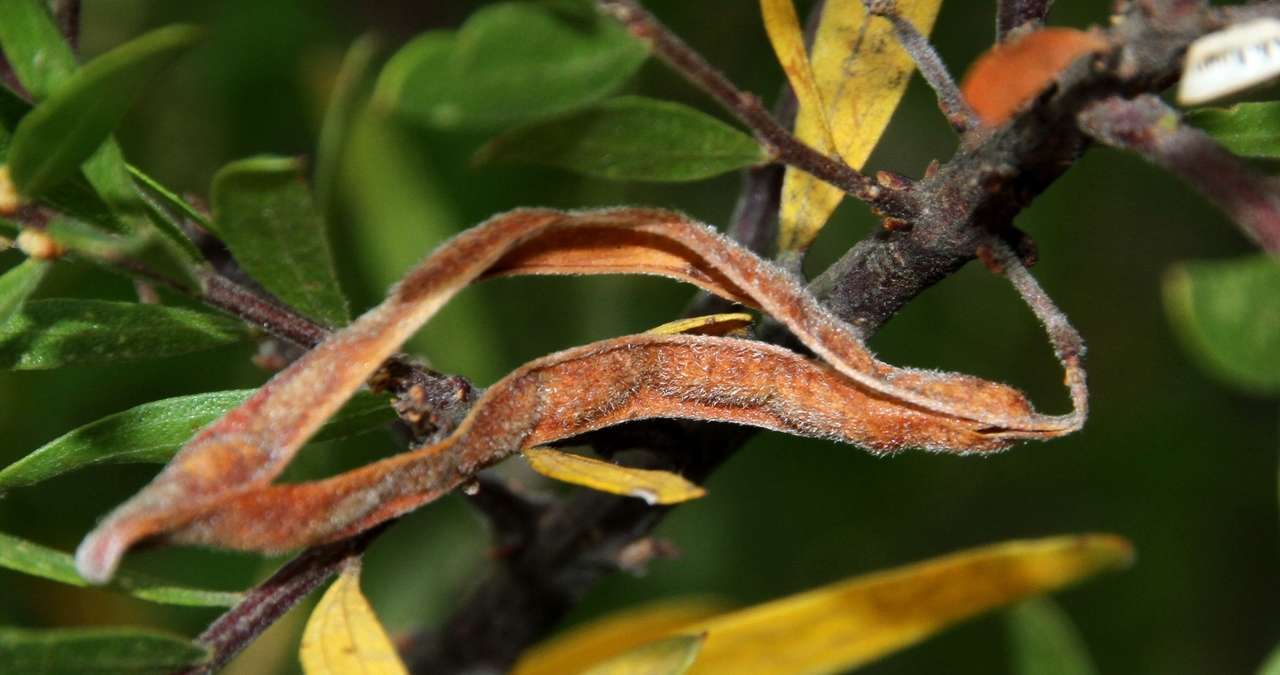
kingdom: Plantae
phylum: Tracheophyta
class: Magnoliopsida
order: Fabales
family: Fabaceae
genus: Acacia
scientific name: Acacia rostriformis
